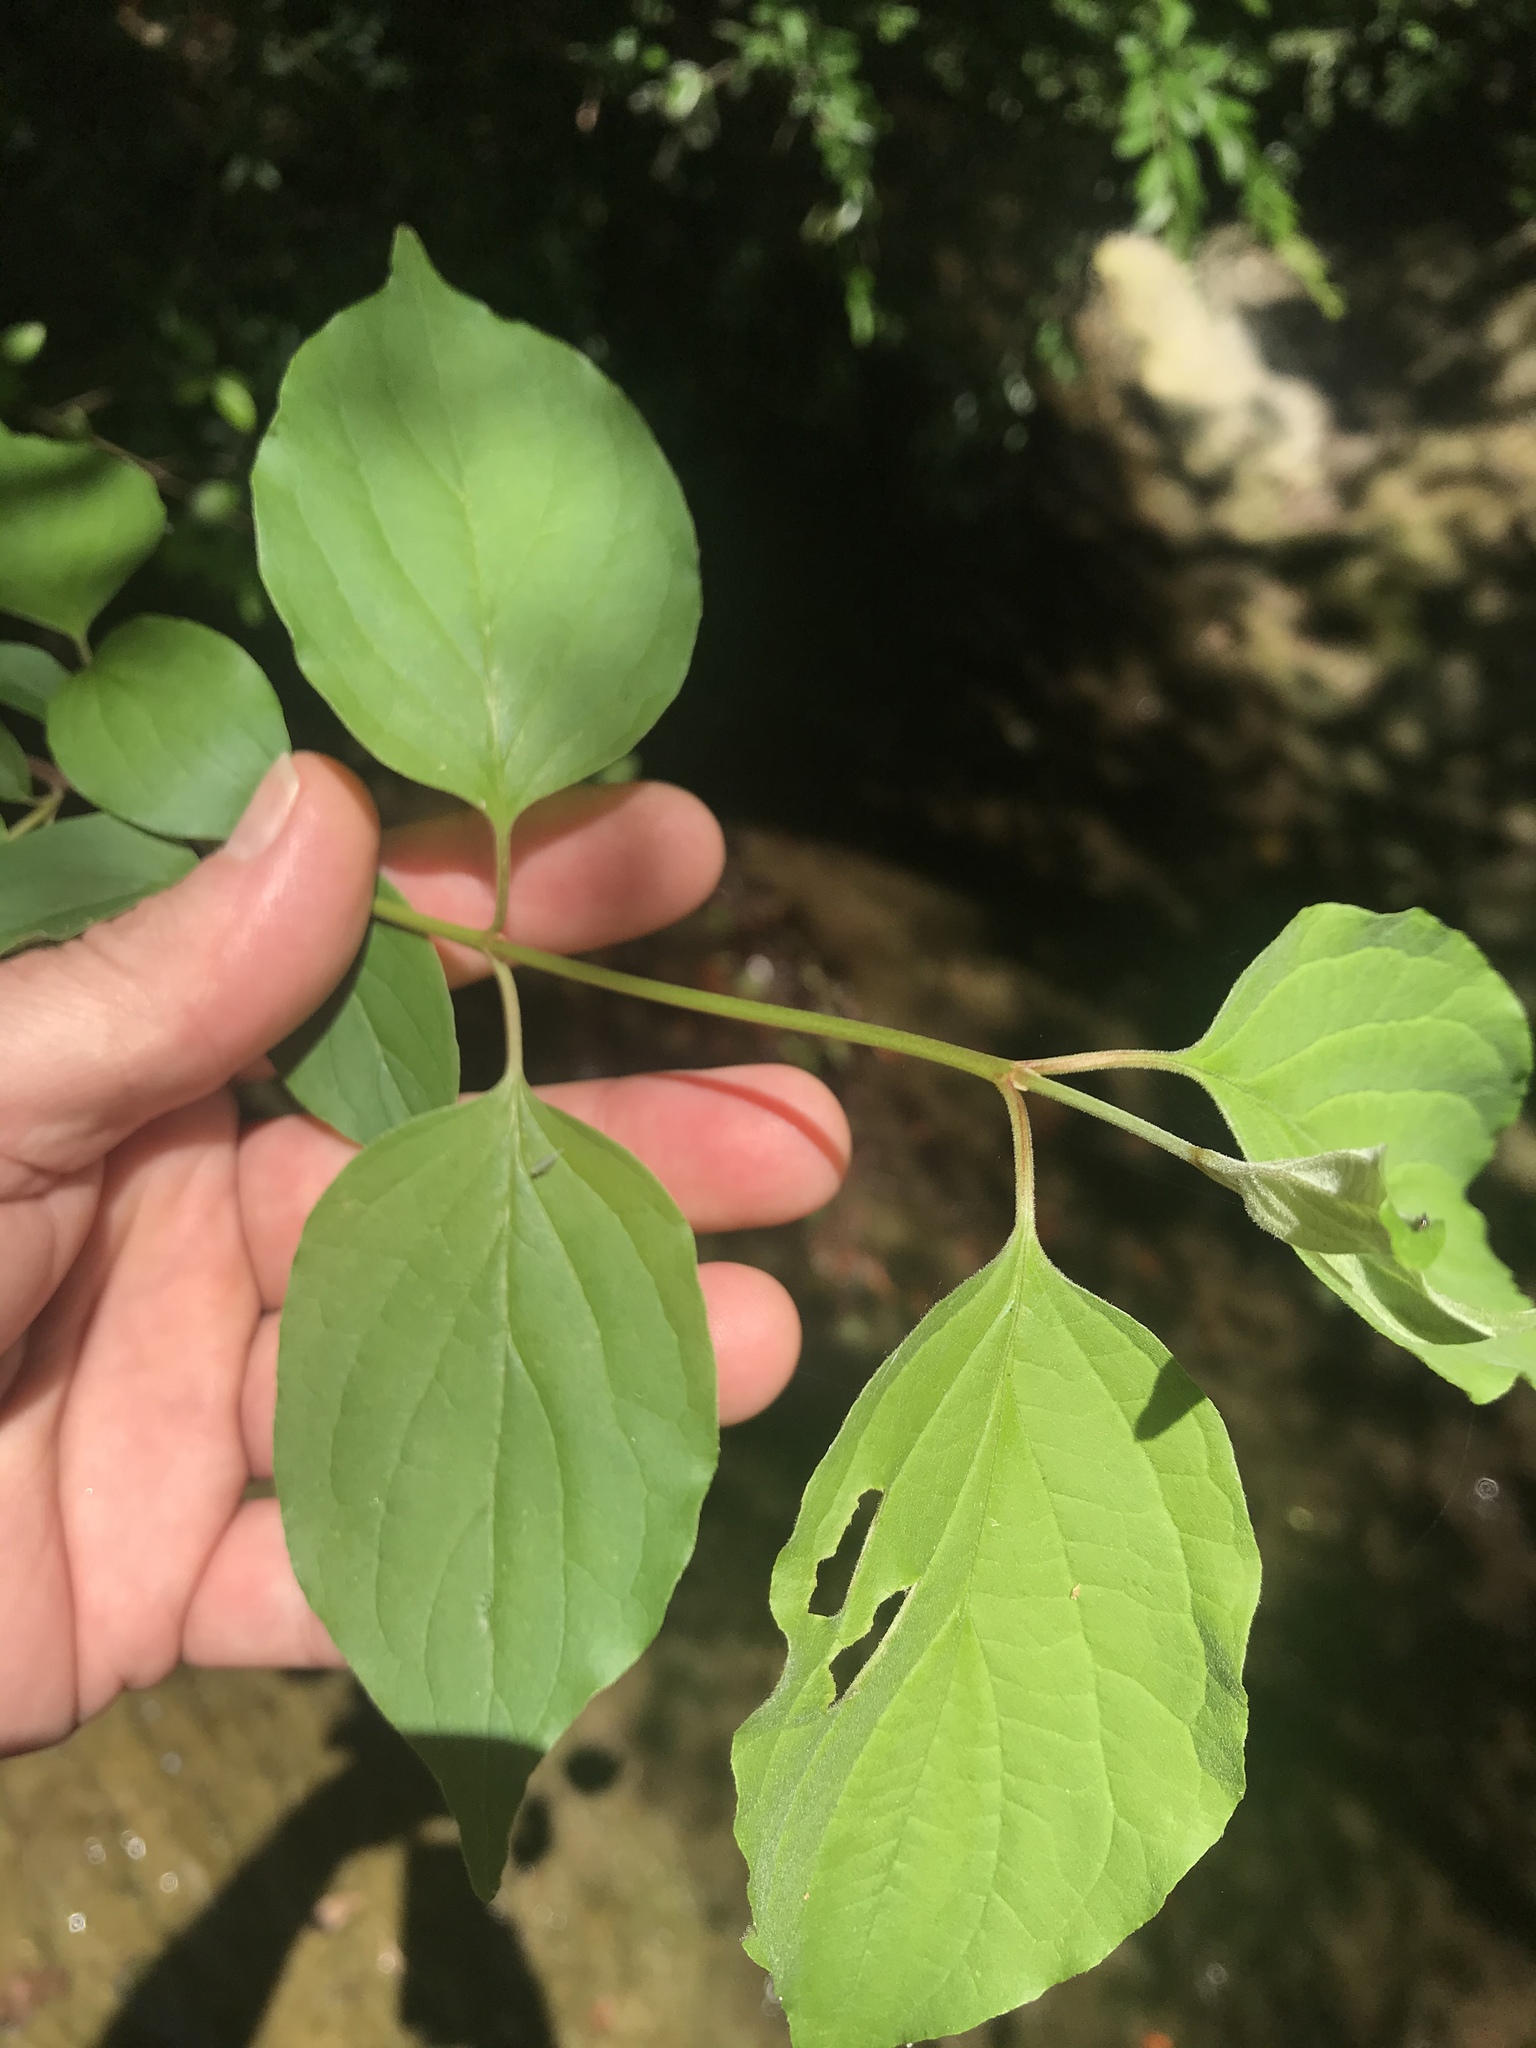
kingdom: Plantae
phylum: Tracheophyta
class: Magnoliopsida
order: Cornales
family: Cornaceae
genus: Cornus
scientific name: Cornus drummondii
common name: Rough-leaf dogwood
